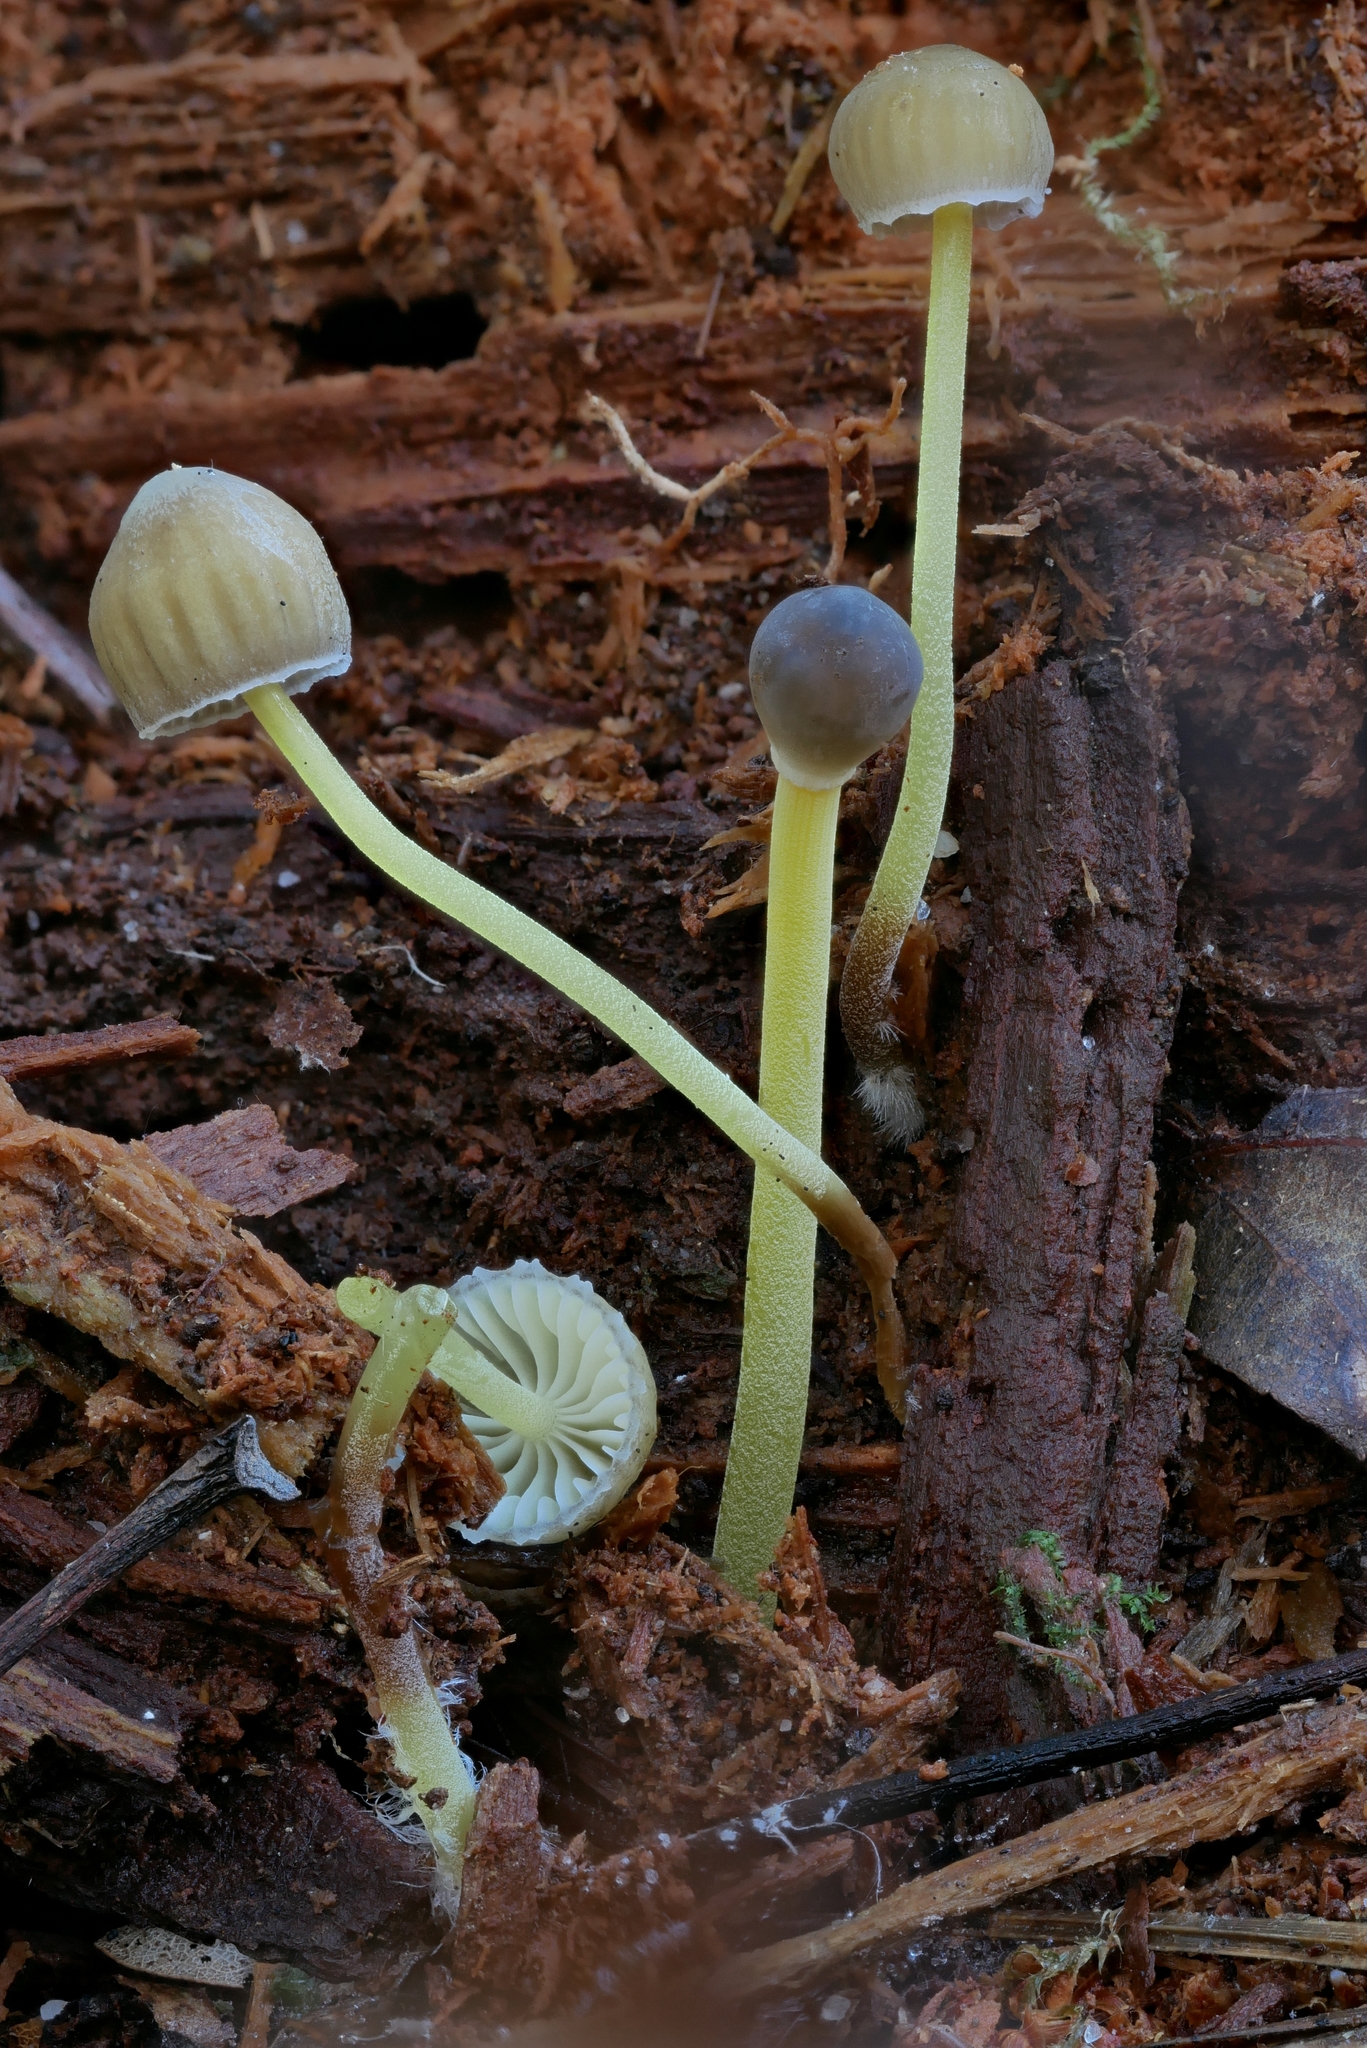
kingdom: Fungi
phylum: Basidiomycota
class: Agaricomycetes
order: Agaricales
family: Mycenaceae
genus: Mycena
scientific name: Mycena epipterygia
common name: Yellowleg bonnet
